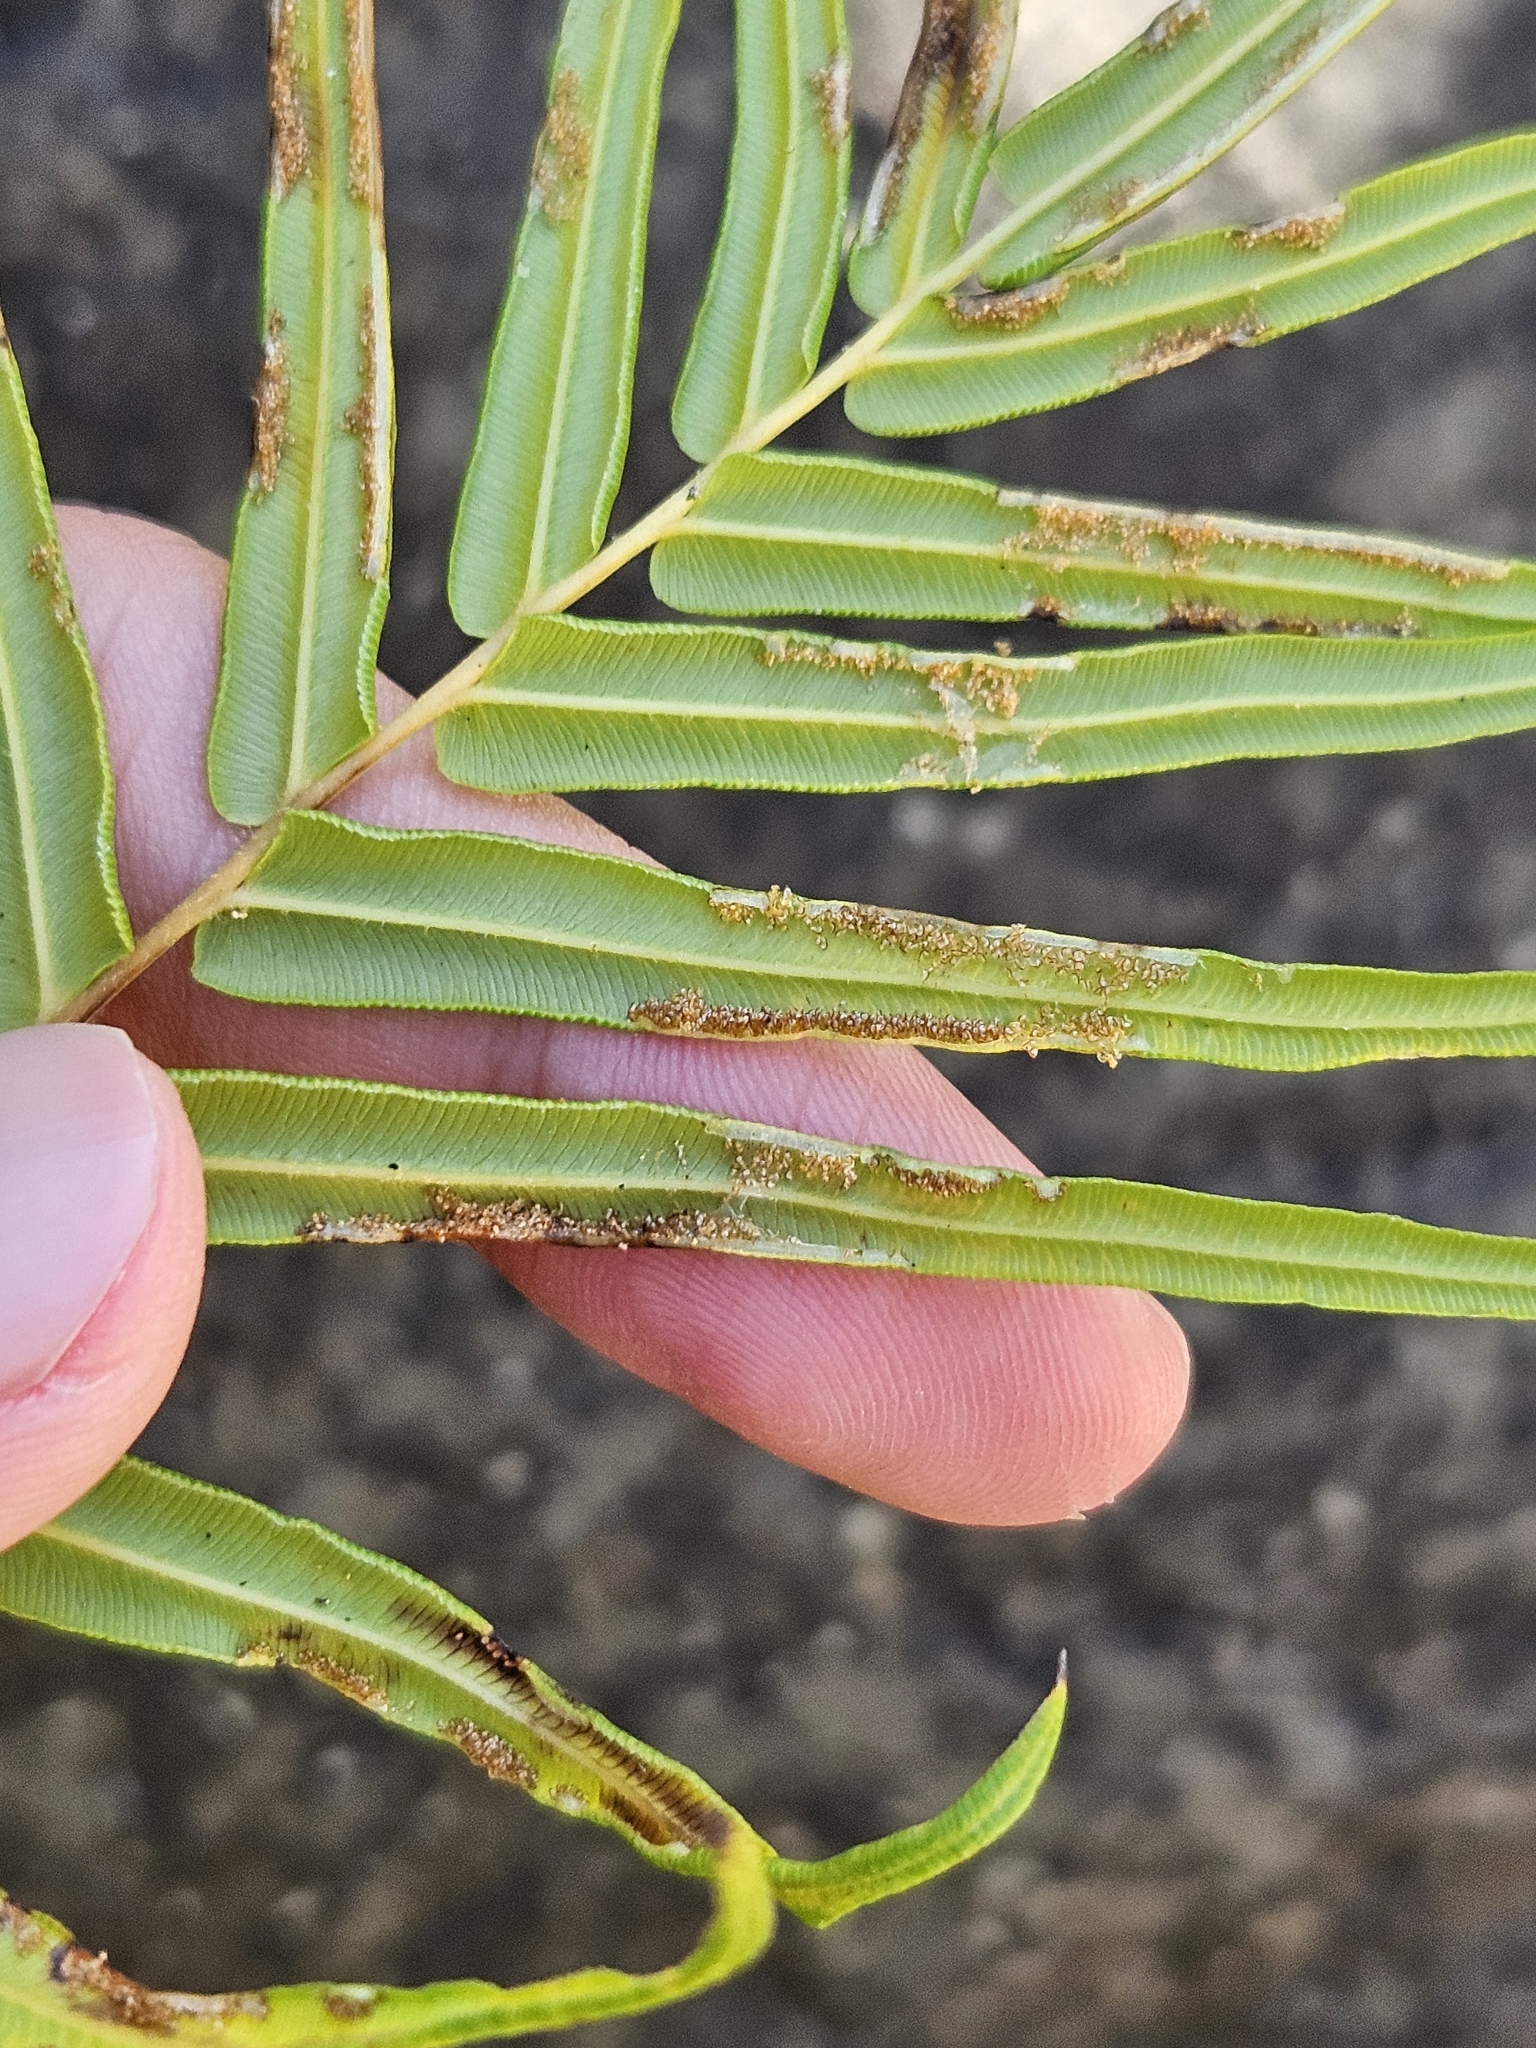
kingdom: Plantae
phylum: Tracheophyta
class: Polypodiopsida
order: Polypodiales
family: Pteridaceae
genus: Pteris
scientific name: Pteris vittata
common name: Ladder brake
